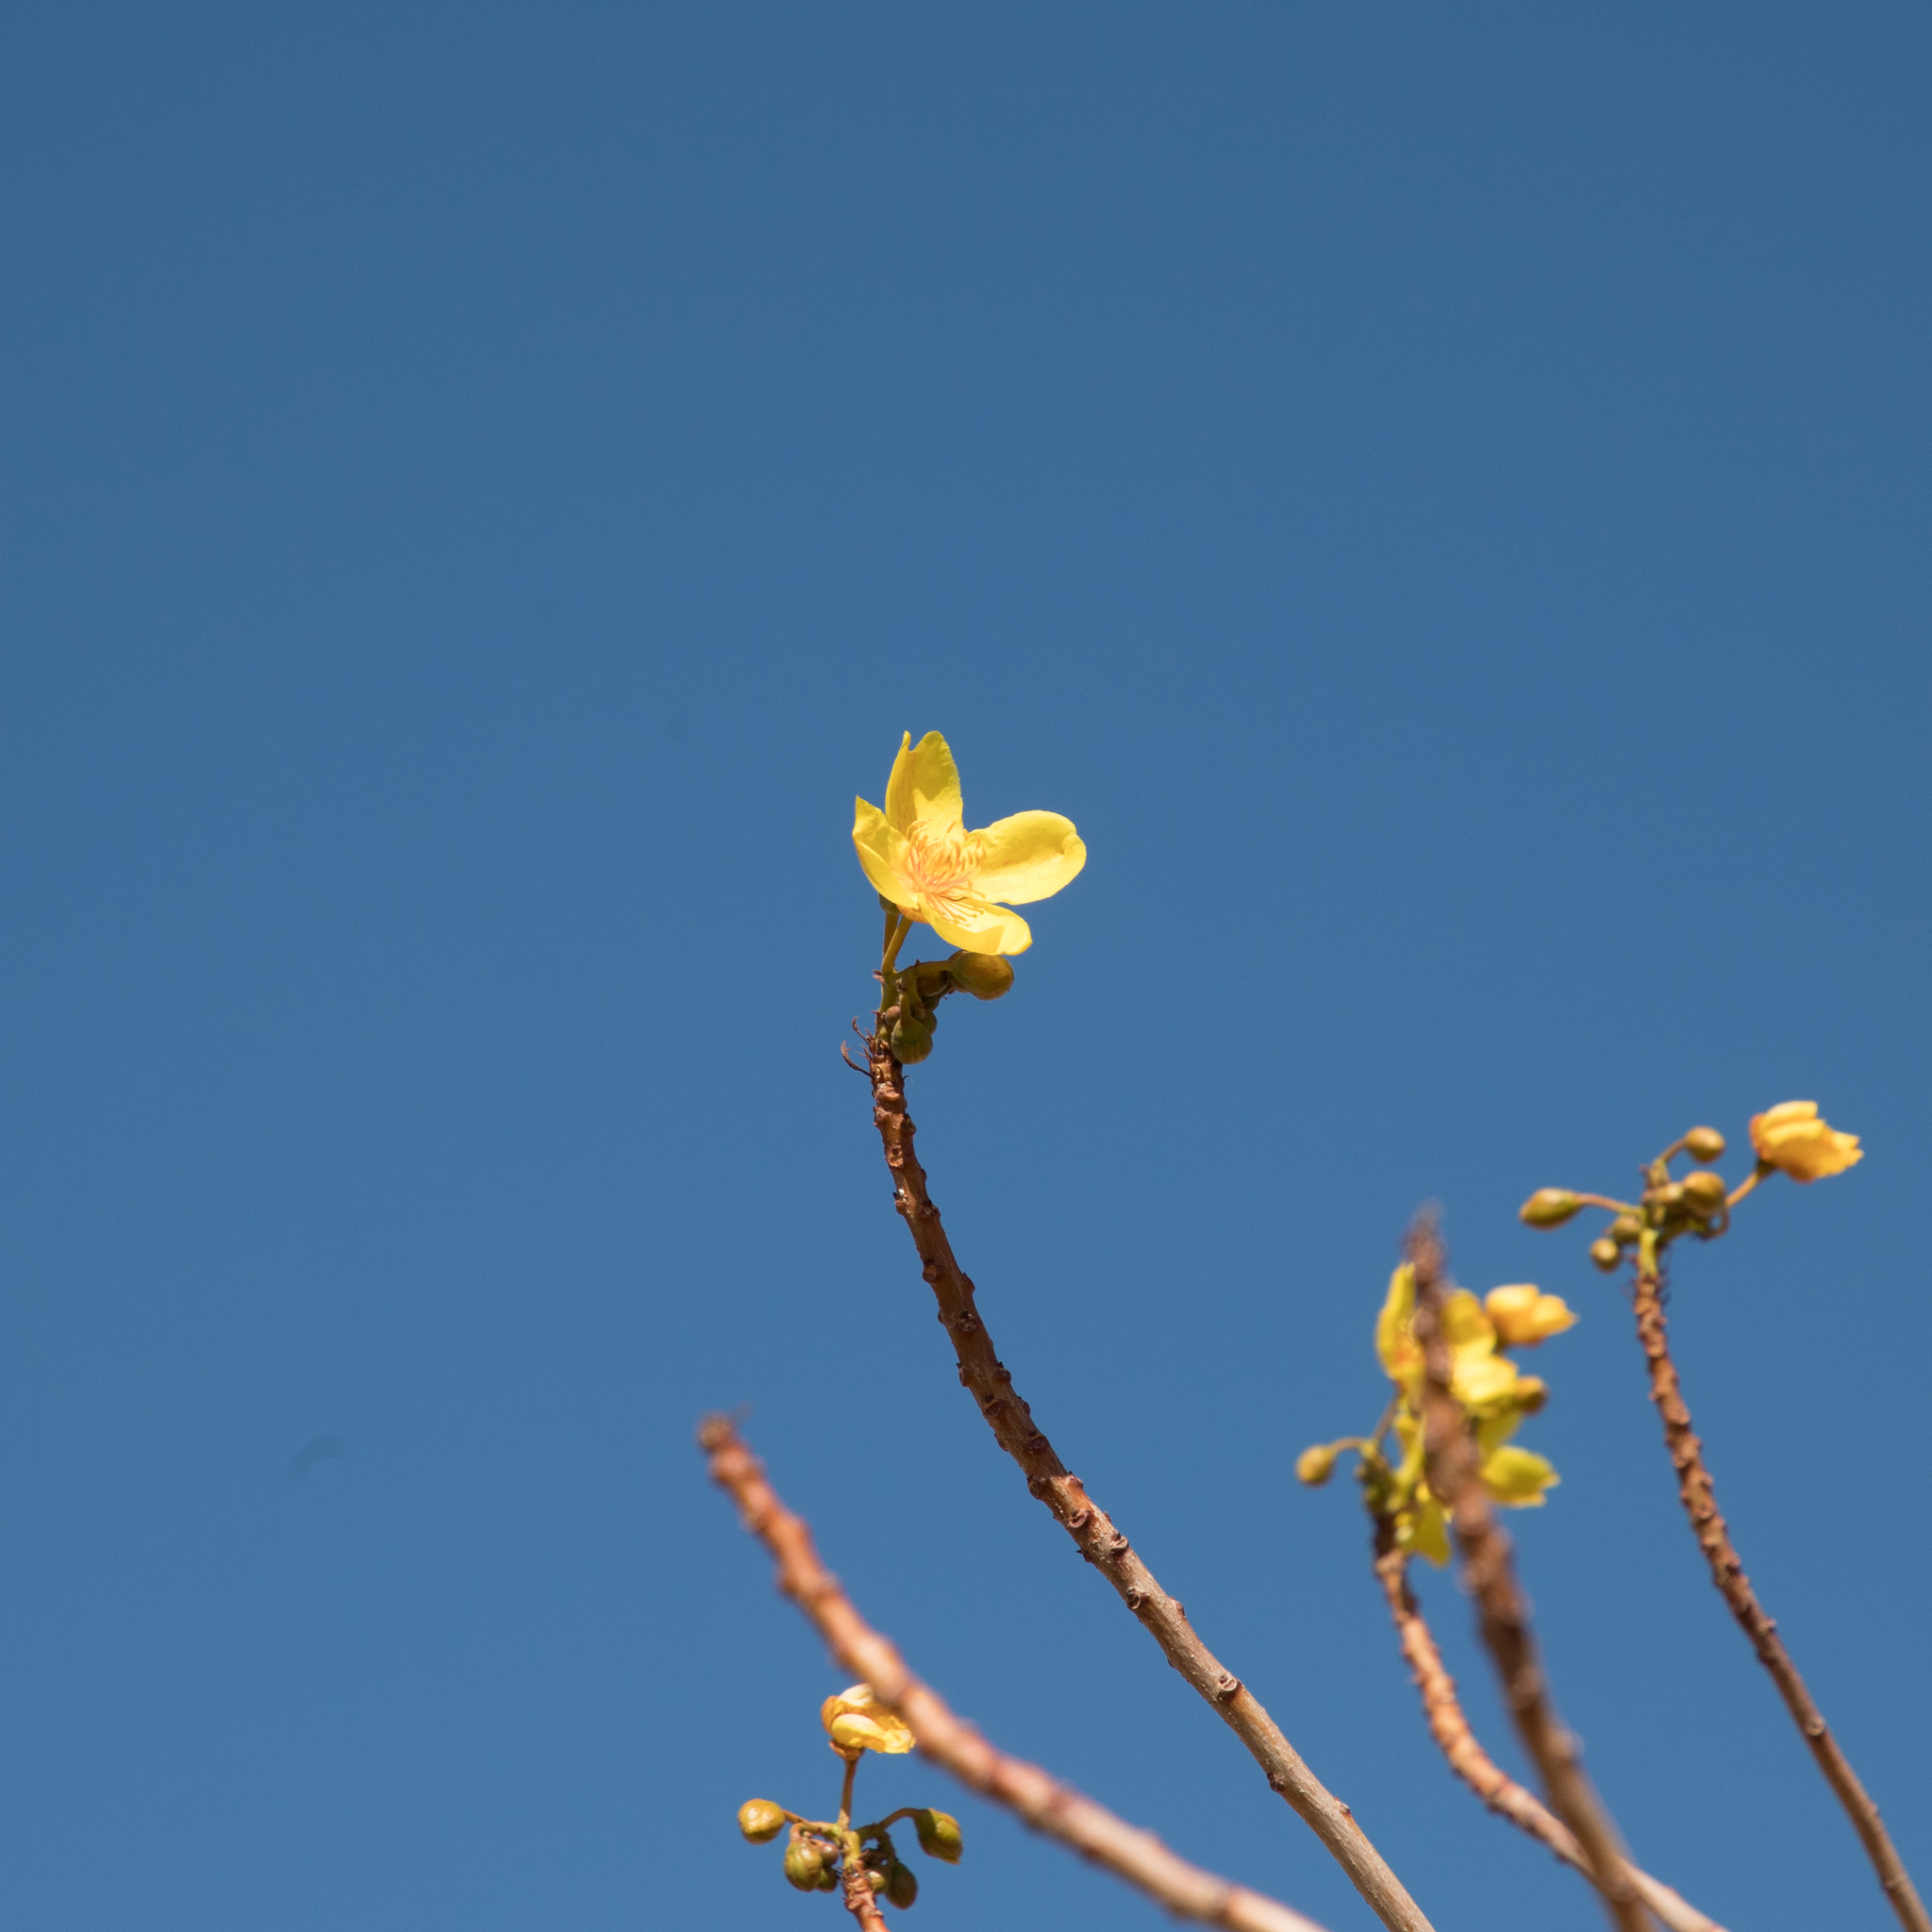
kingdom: Plantae
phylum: Tracheophyta
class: Magnoliopsida
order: Malvales
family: Cochlospermaceae
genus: Cochlospermum
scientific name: Cochlospermum gillivraei
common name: Cottontree
